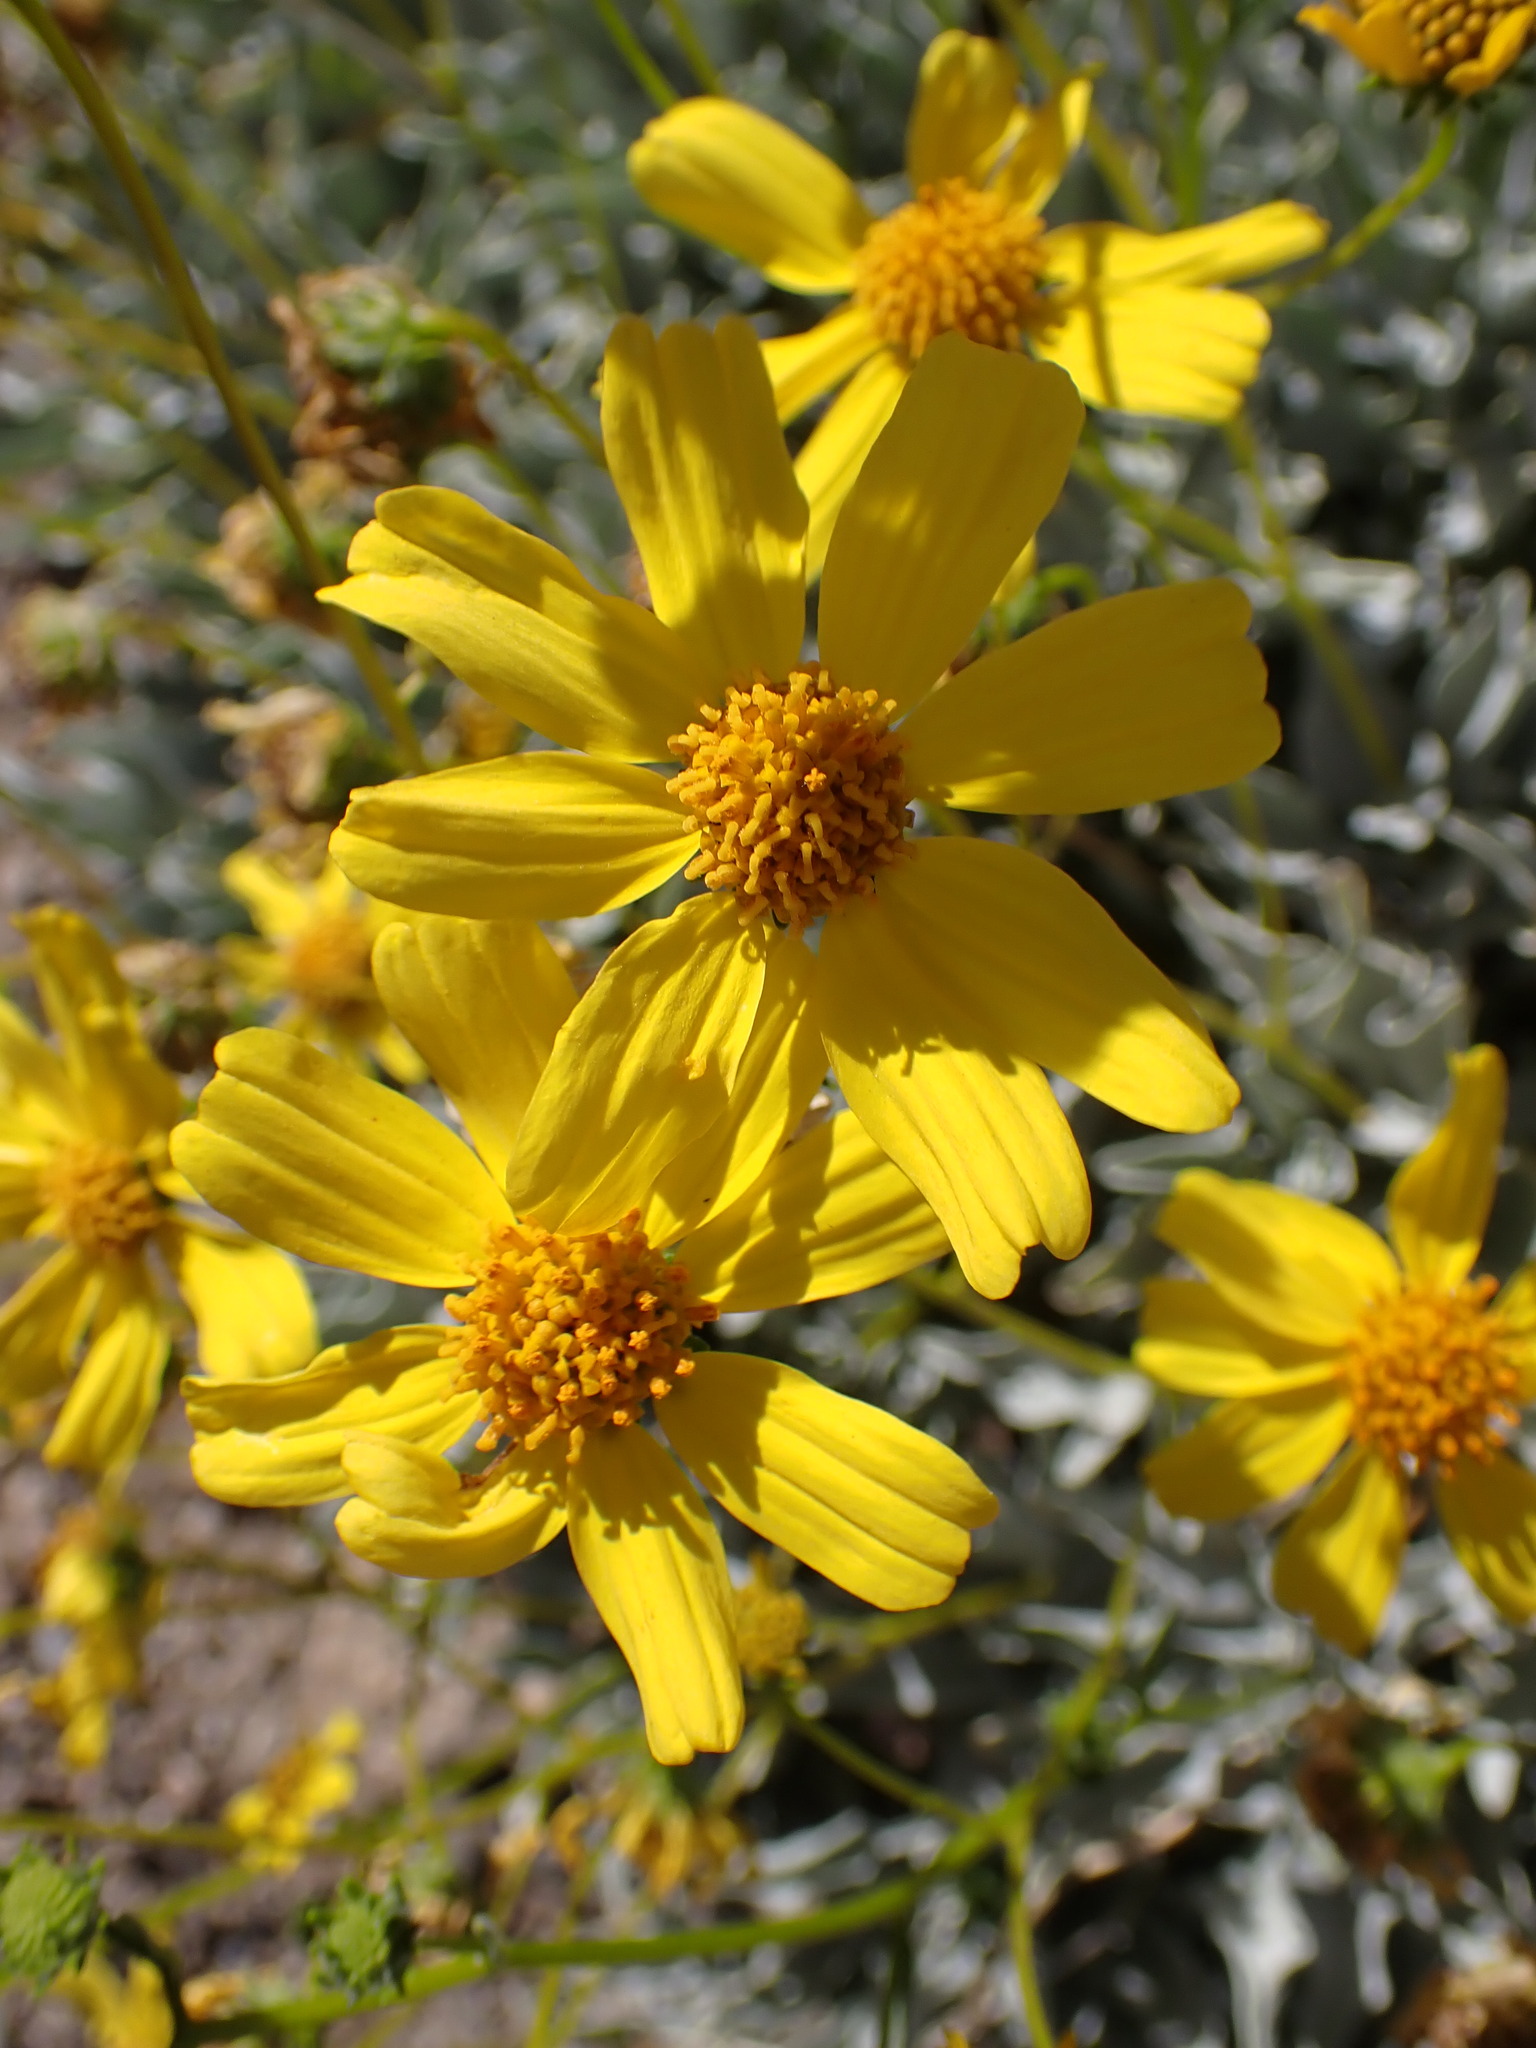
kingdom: Plantae
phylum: Tracheophyta
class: Magnoliopsida
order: Asterales
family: Asteraceae
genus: Encelia
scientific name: Encelia farinosa
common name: Brittlebush
